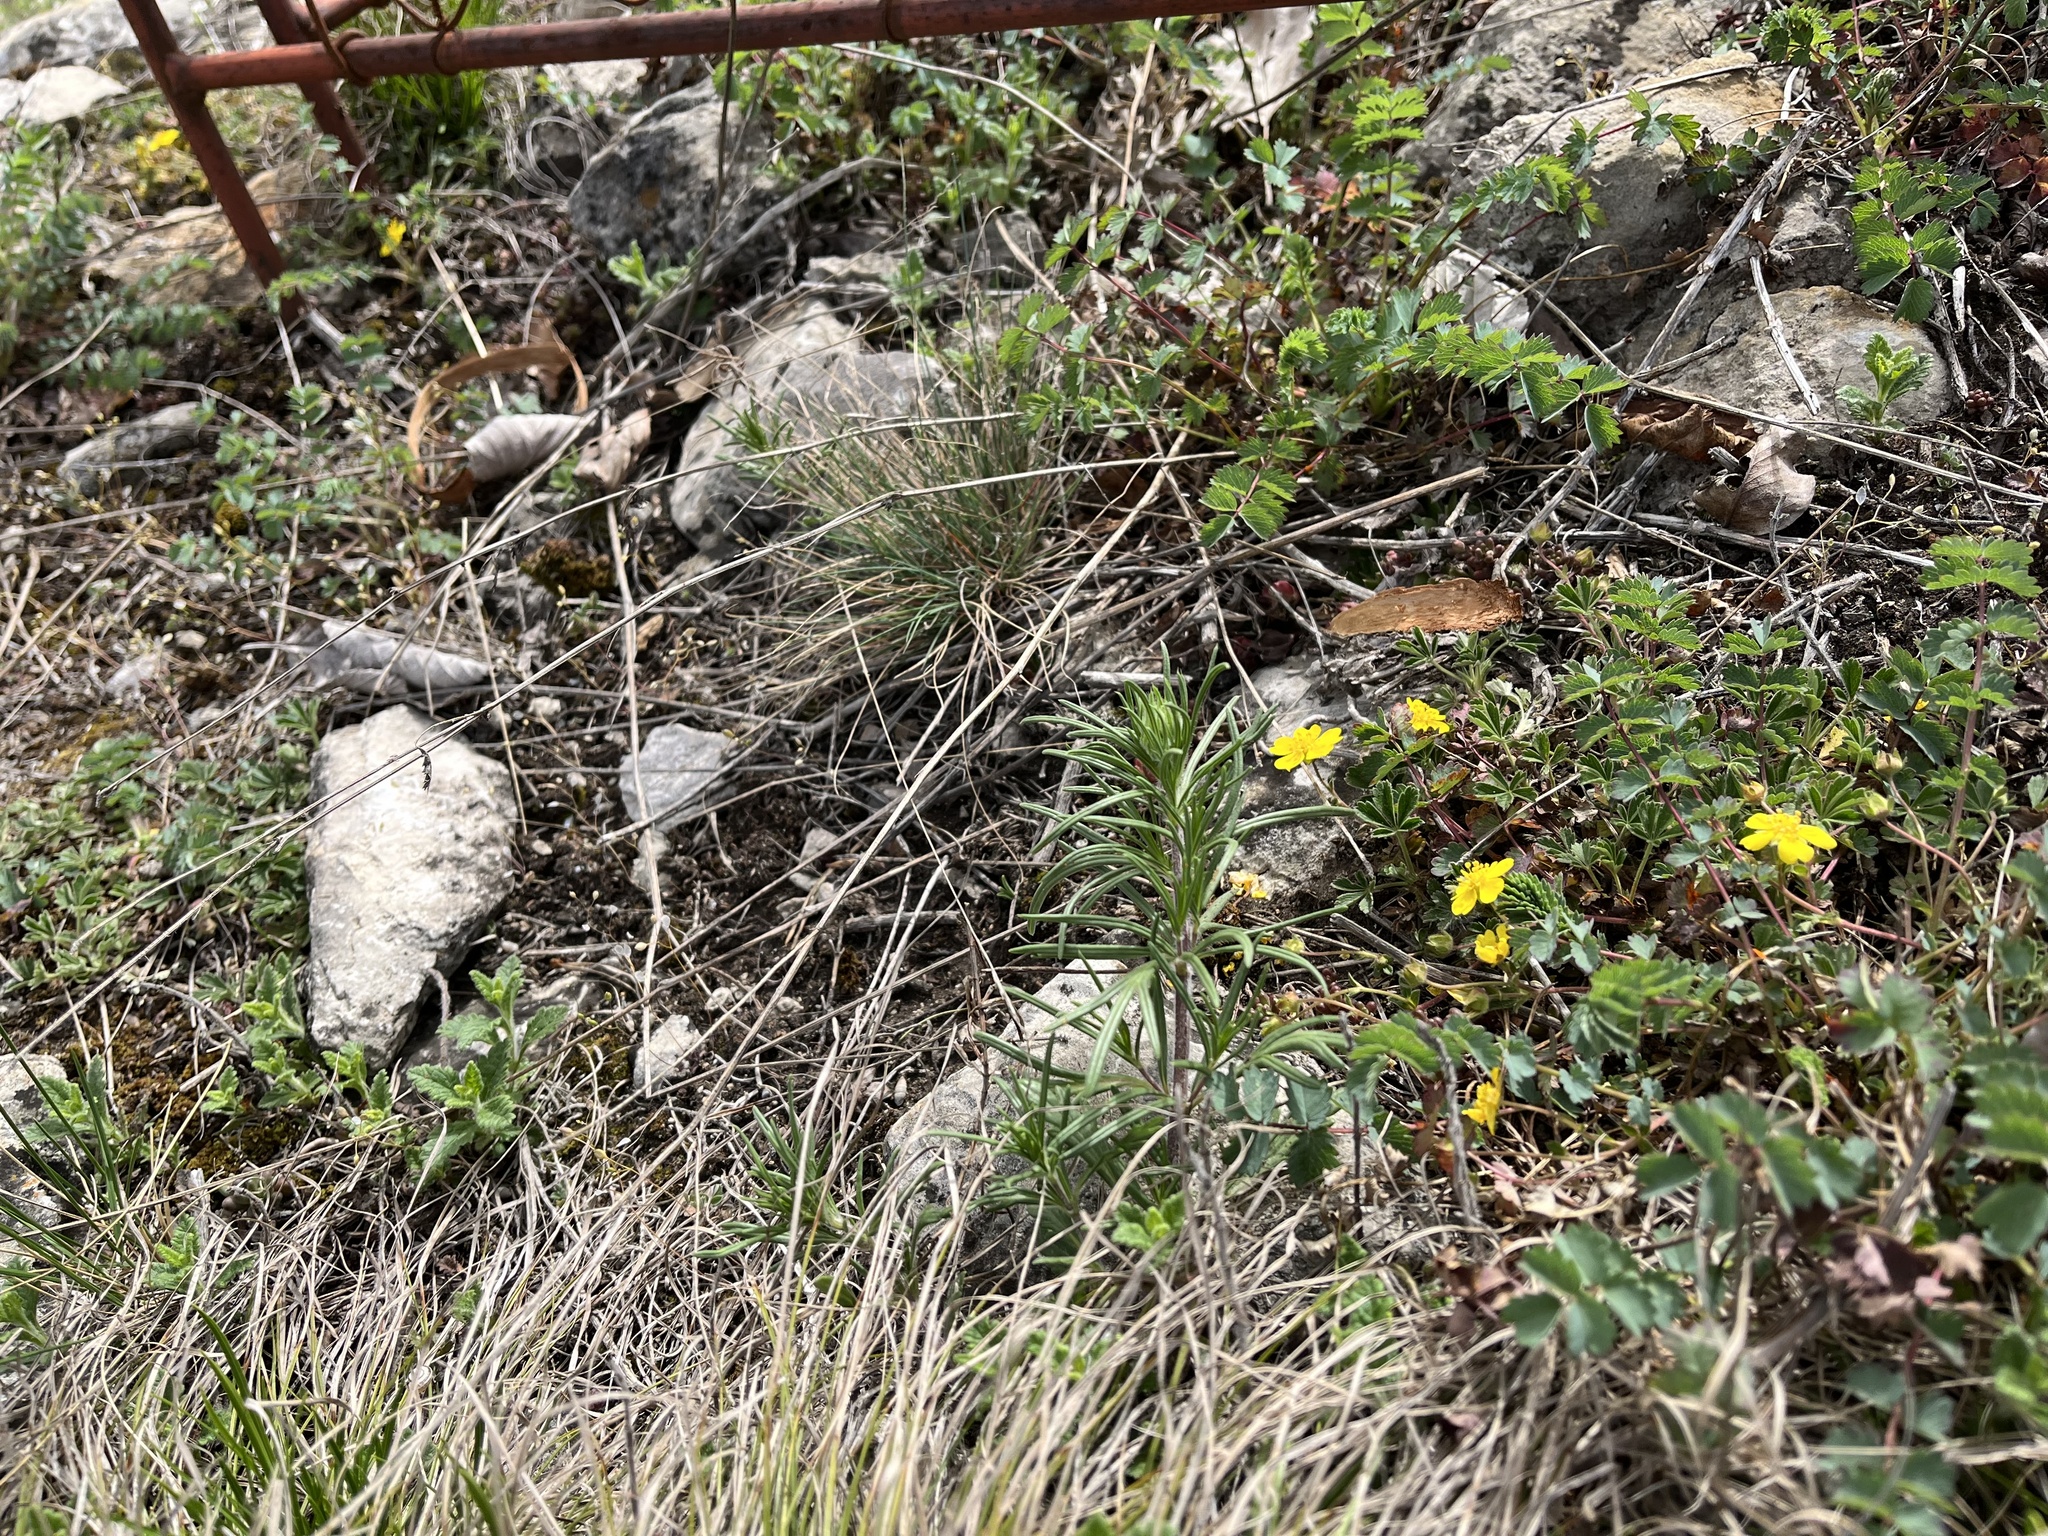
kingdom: Plantae
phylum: Tracheophyta
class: Magnoliopsida
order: Lamiales
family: Lamiaceae
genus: Dracocephalum
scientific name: Dracocephalum austriacum
